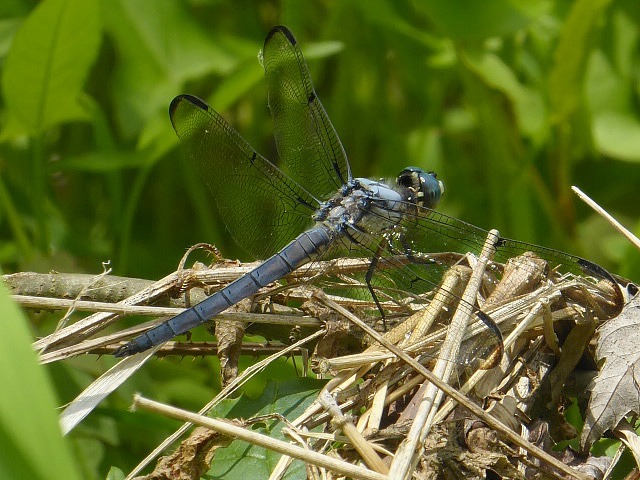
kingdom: Animalia
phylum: Arthropoda
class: Insecta
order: Odonata
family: Libellulidae
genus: Libellula
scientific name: Libellula vibrans
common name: Great blue skimmer
